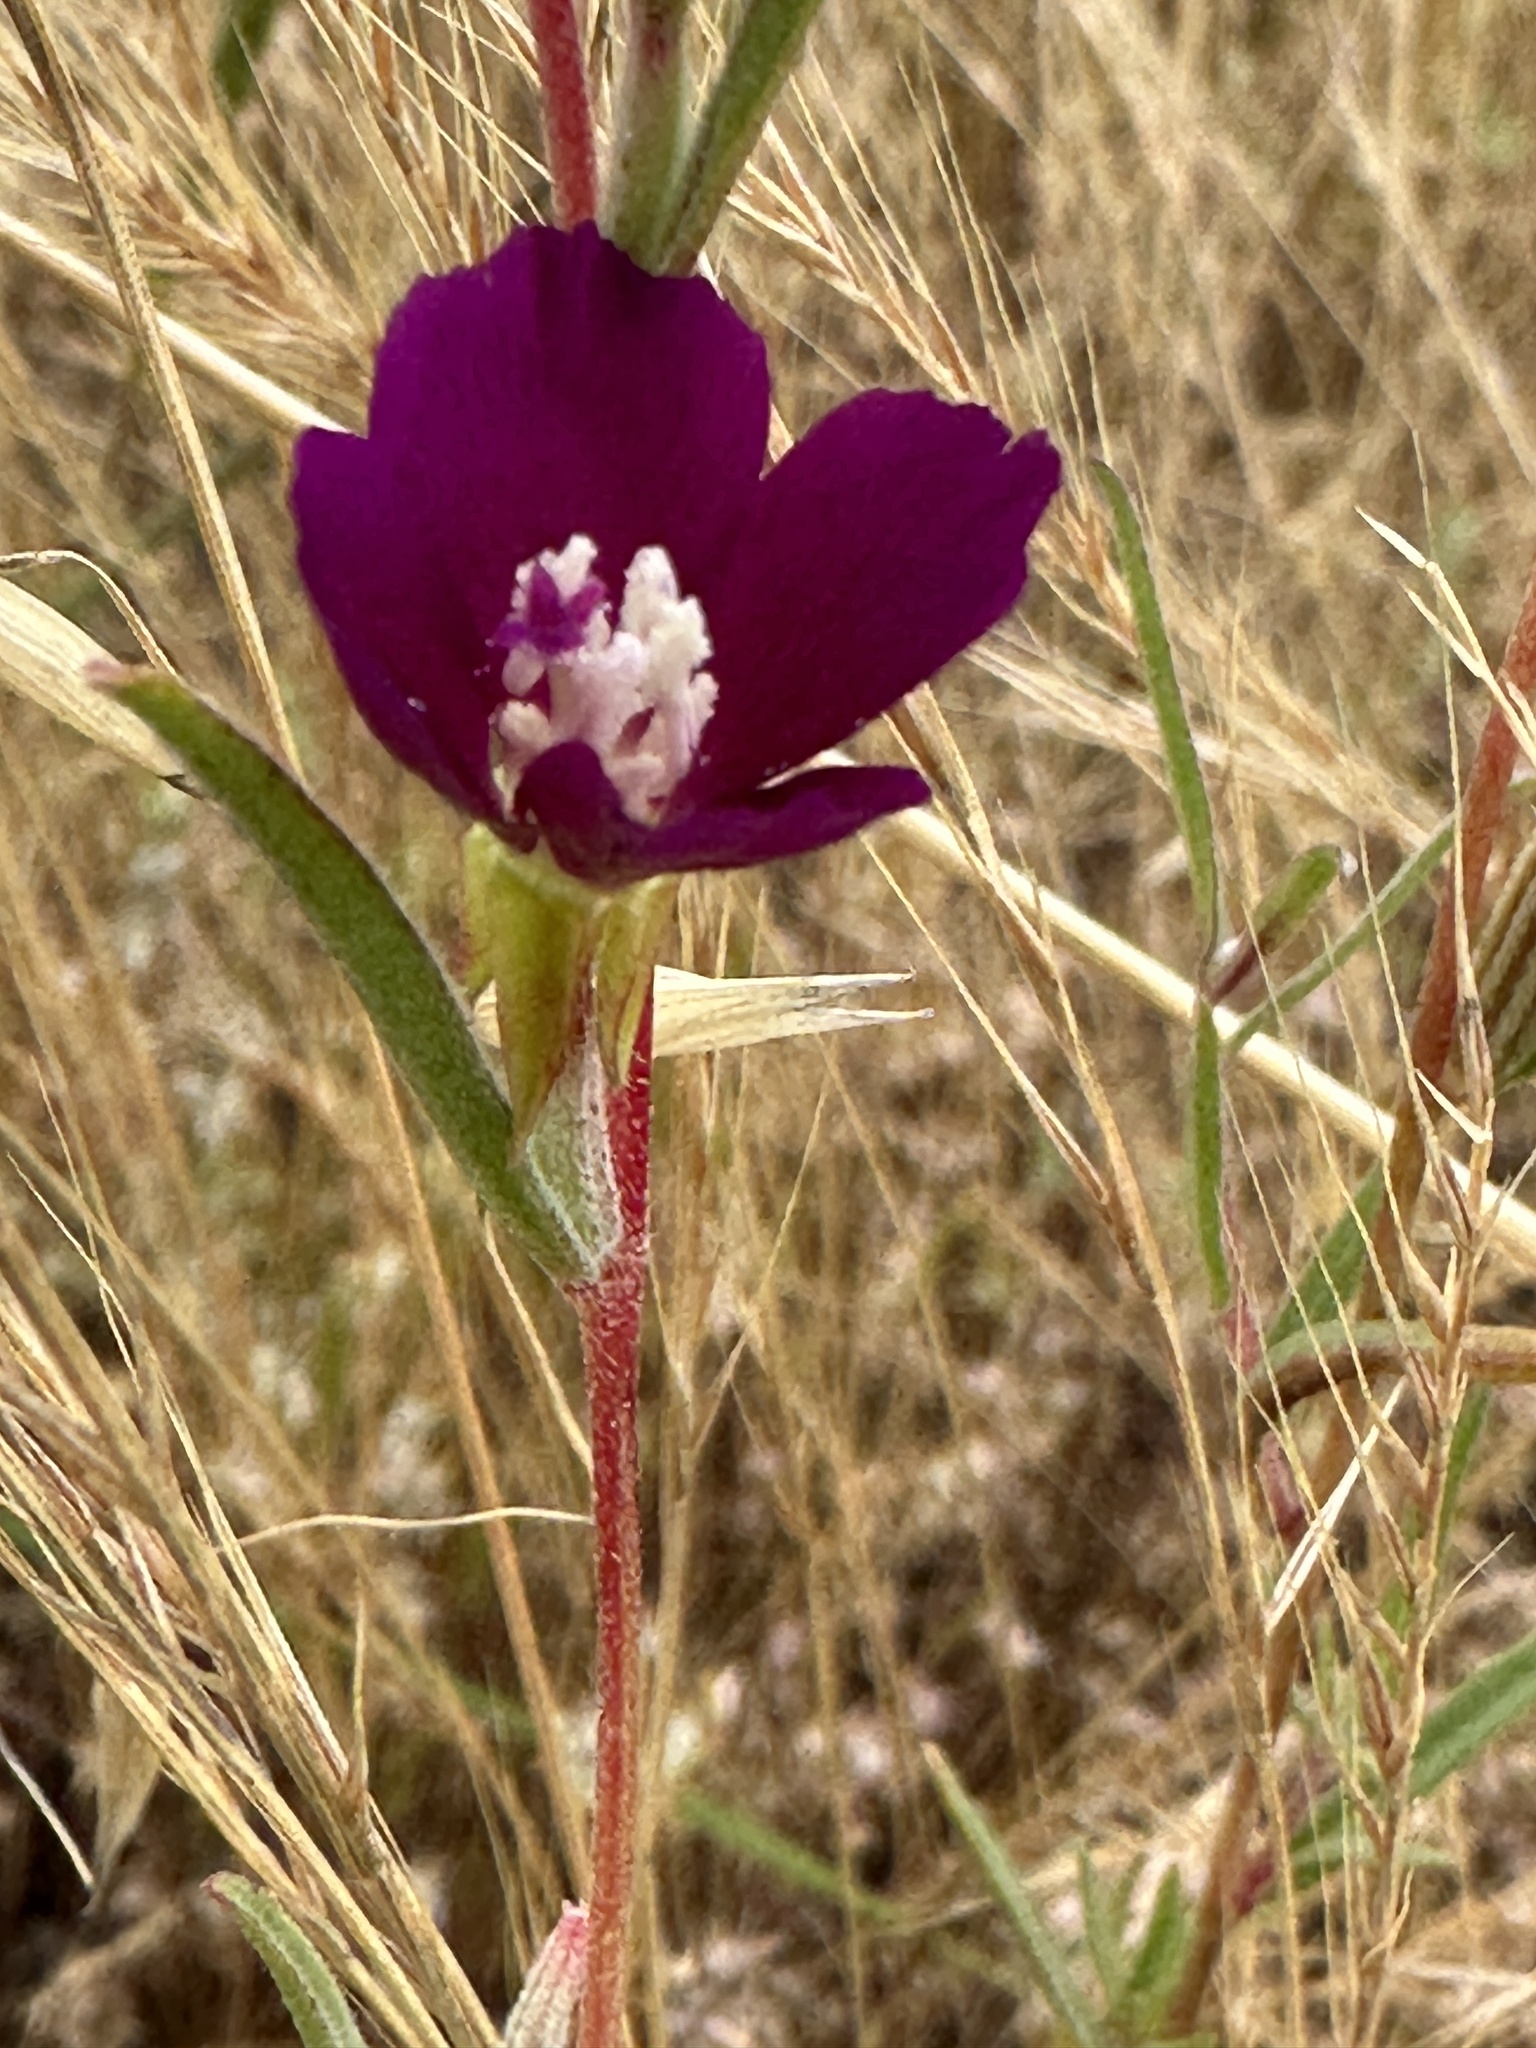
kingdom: Plantae
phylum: Tracheophyta
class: Magnoliopsida
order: Myrtales
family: Onagraceae
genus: Clarkia
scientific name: Clarkia purpurea
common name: Purple clarkia
